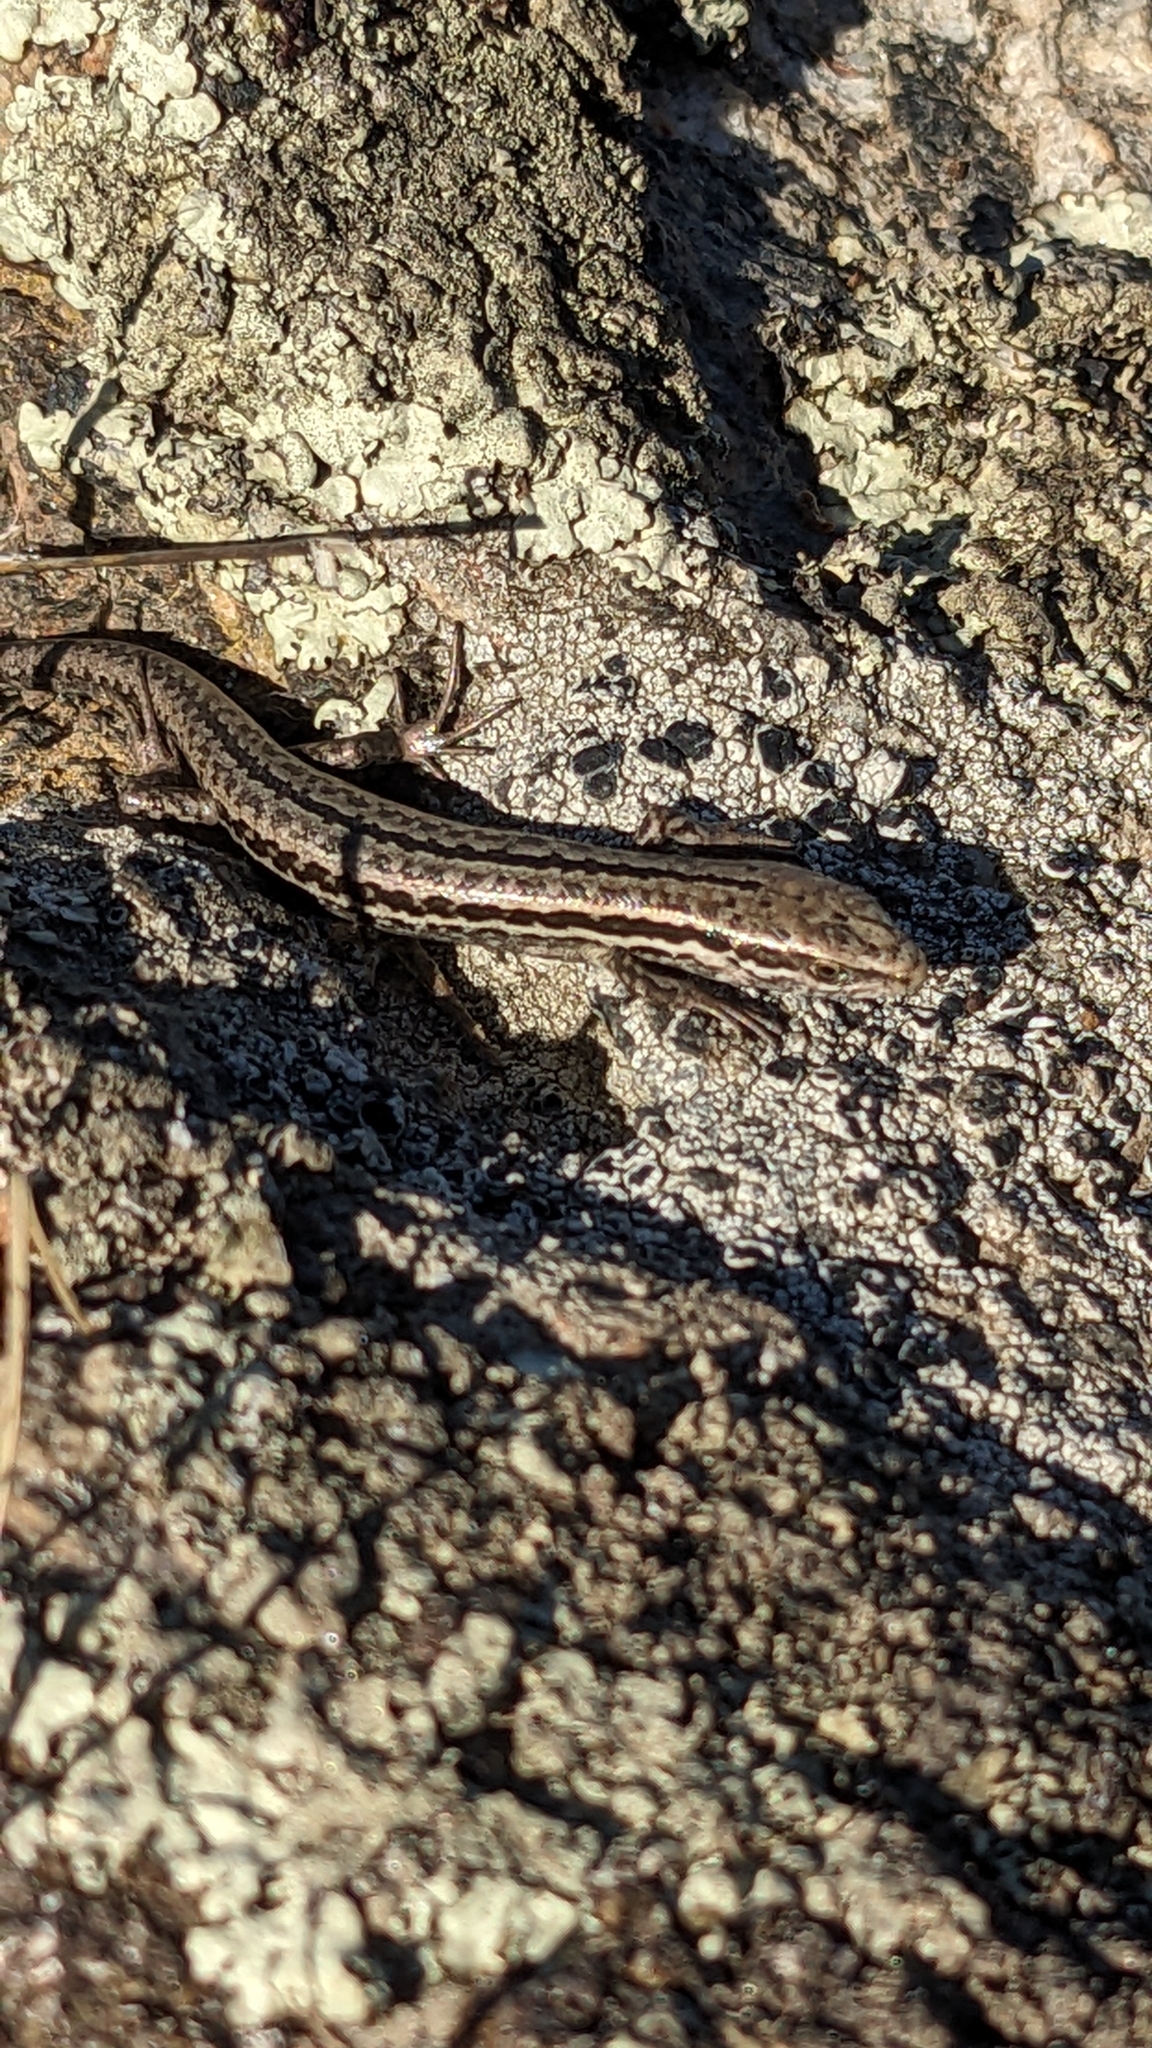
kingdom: Animalia
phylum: Chordata
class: Squamata
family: Scincidae
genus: Oligosoma
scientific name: Oligosoma maccanni
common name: Mccann’s skink
